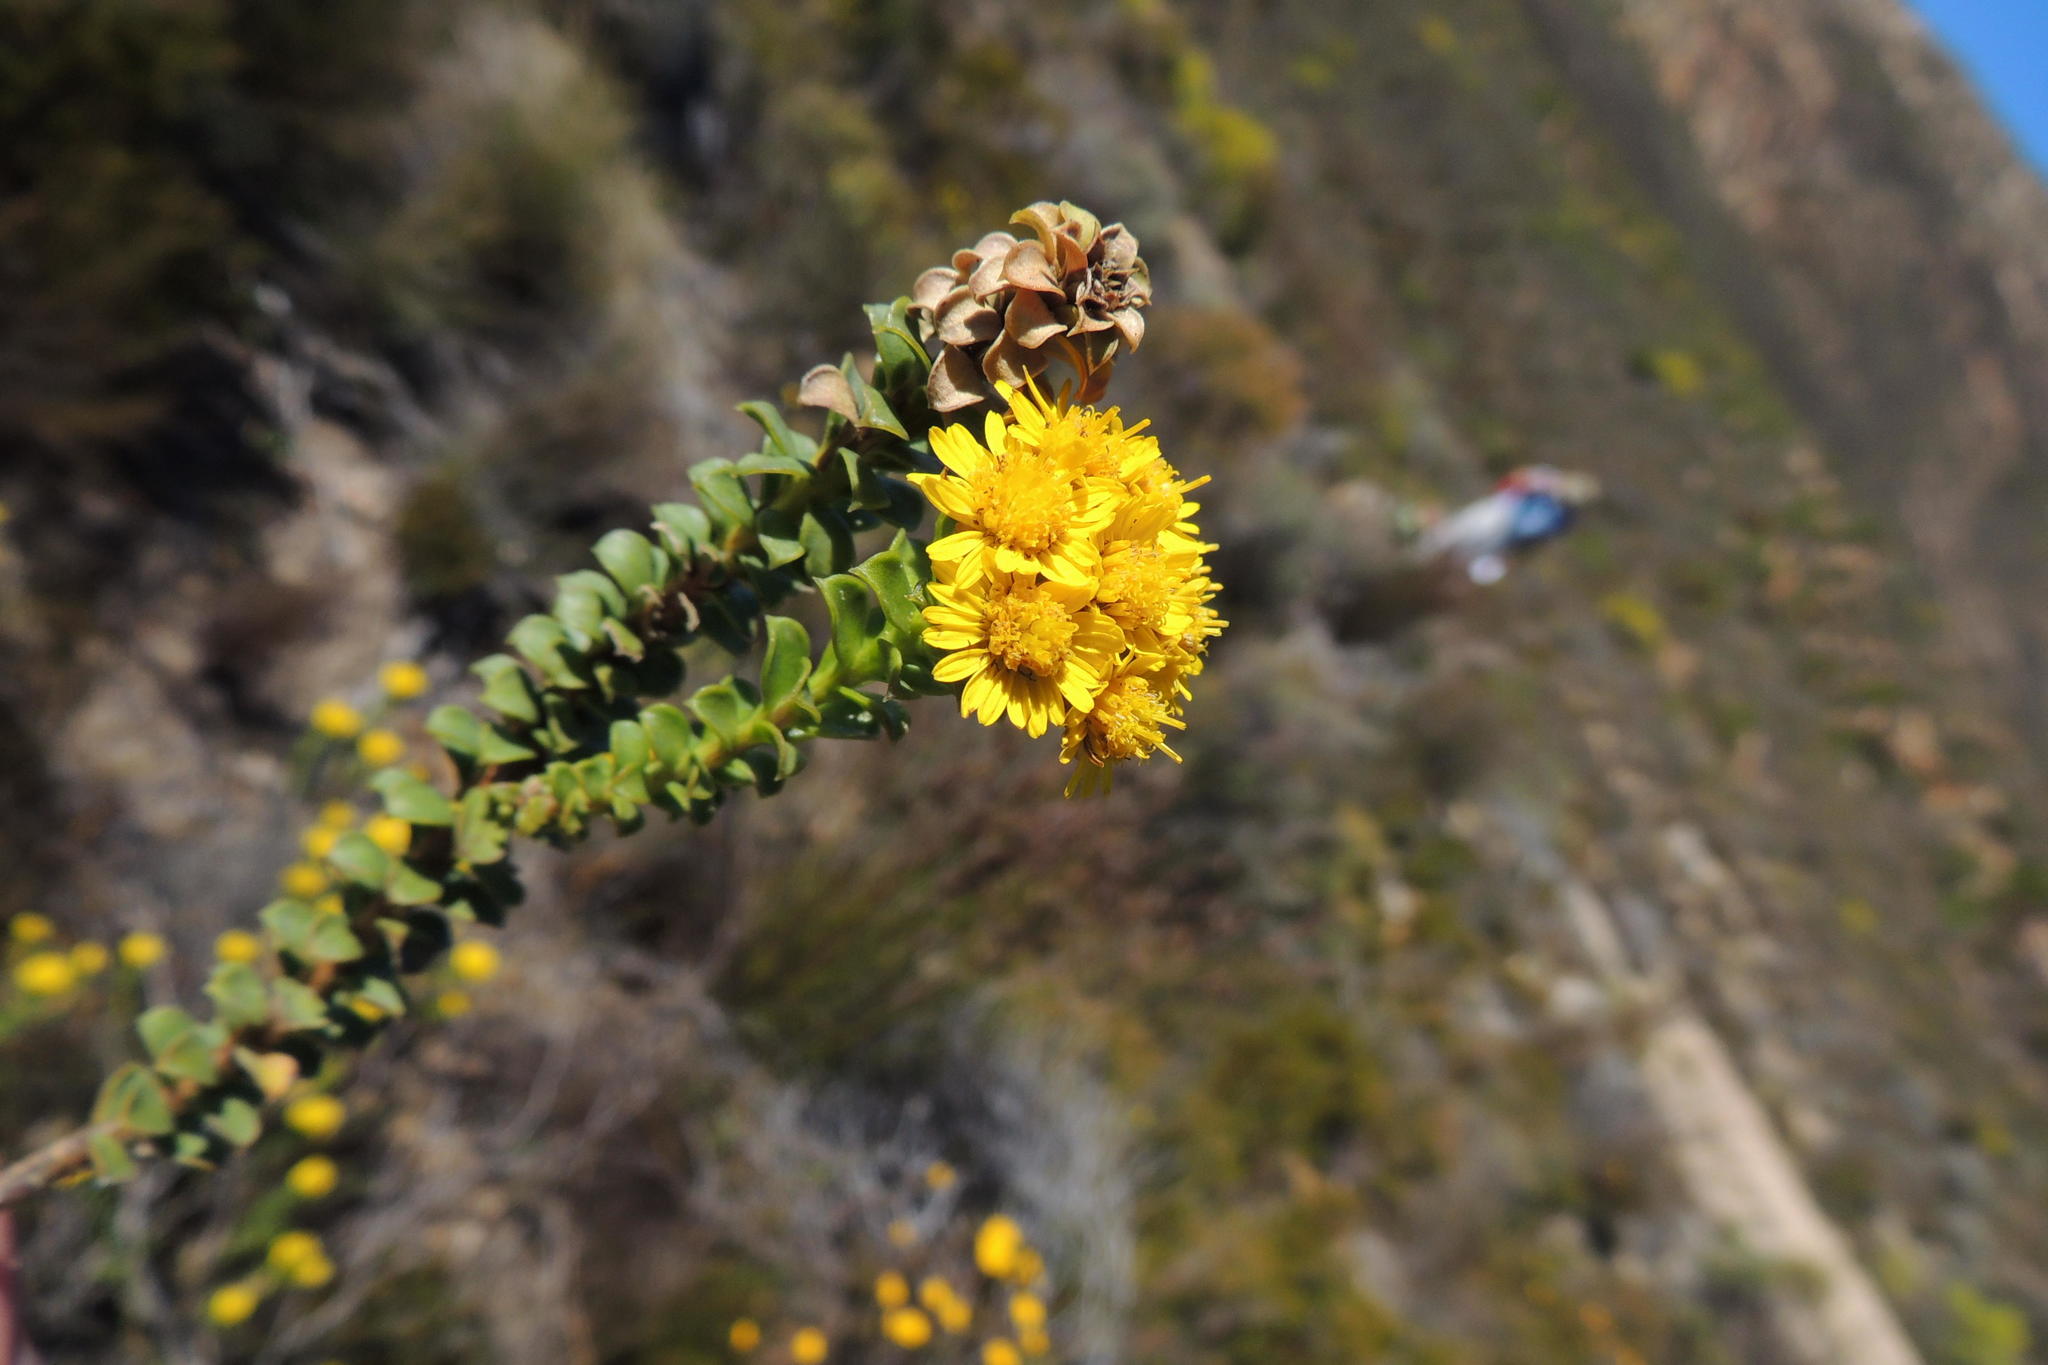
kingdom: Plantae
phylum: Tracheophyta
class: Magnoliopsida
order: Asterales
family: Asteraceae
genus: Oedera
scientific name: Oedera squarrosa
